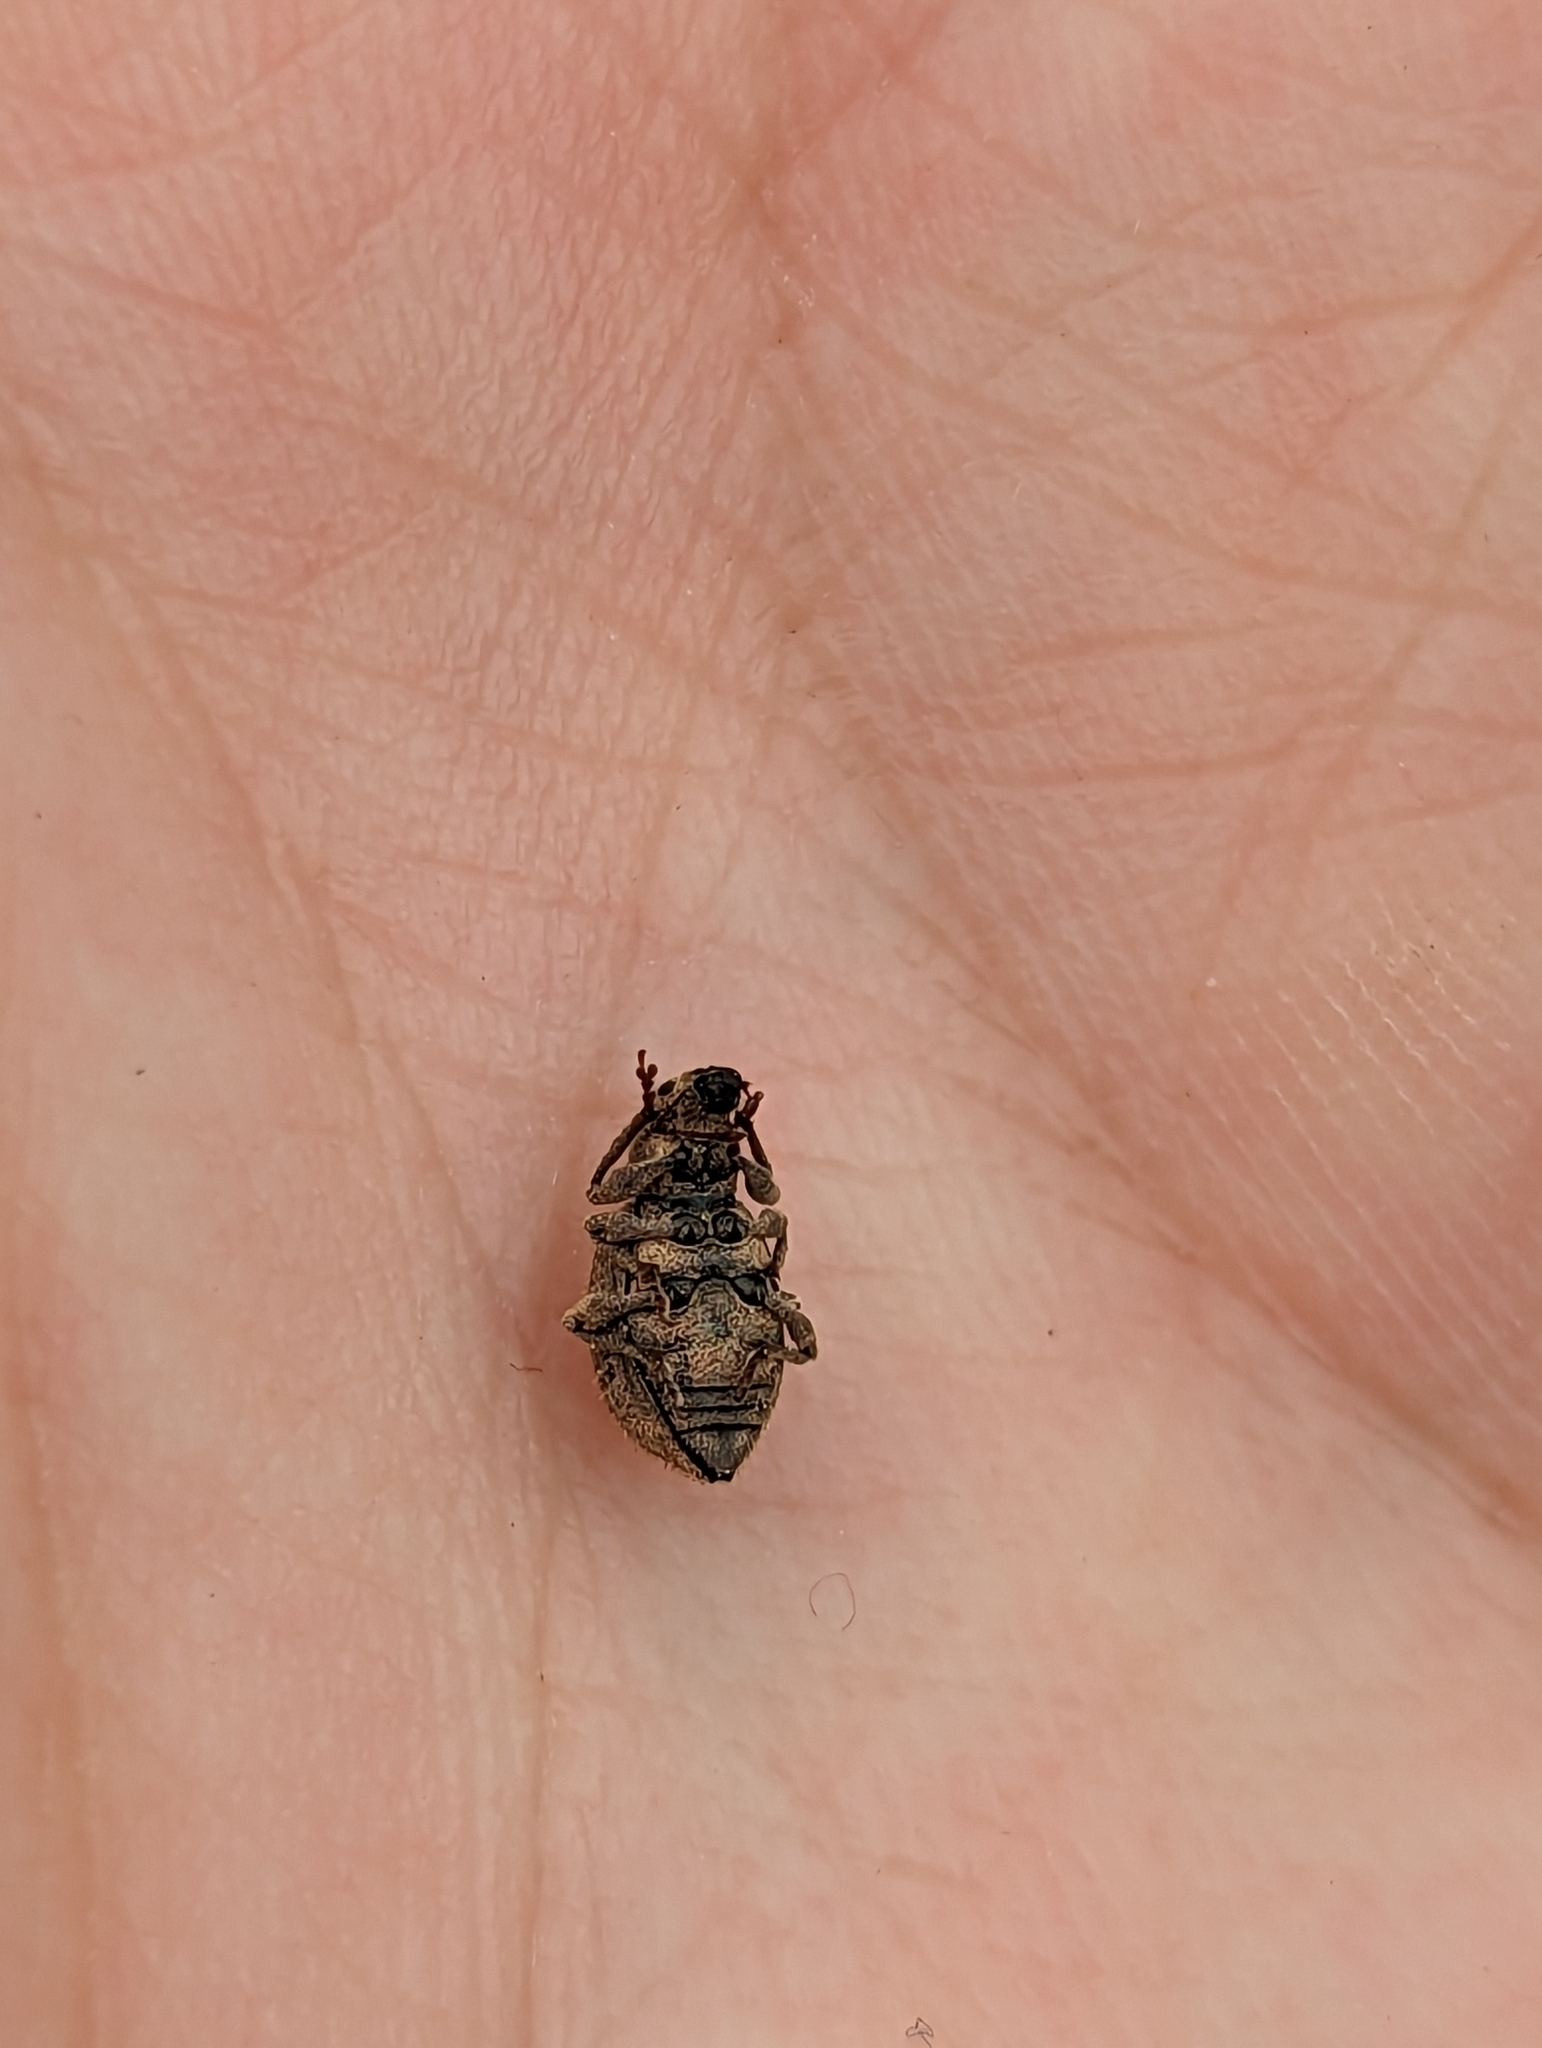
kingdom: Animalia
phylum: Arthropoda
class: Insecta
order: Coleoptera
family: Curculionidae
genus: Sciaphilus
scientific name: Sciaphilus asperatus
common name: Weevil
